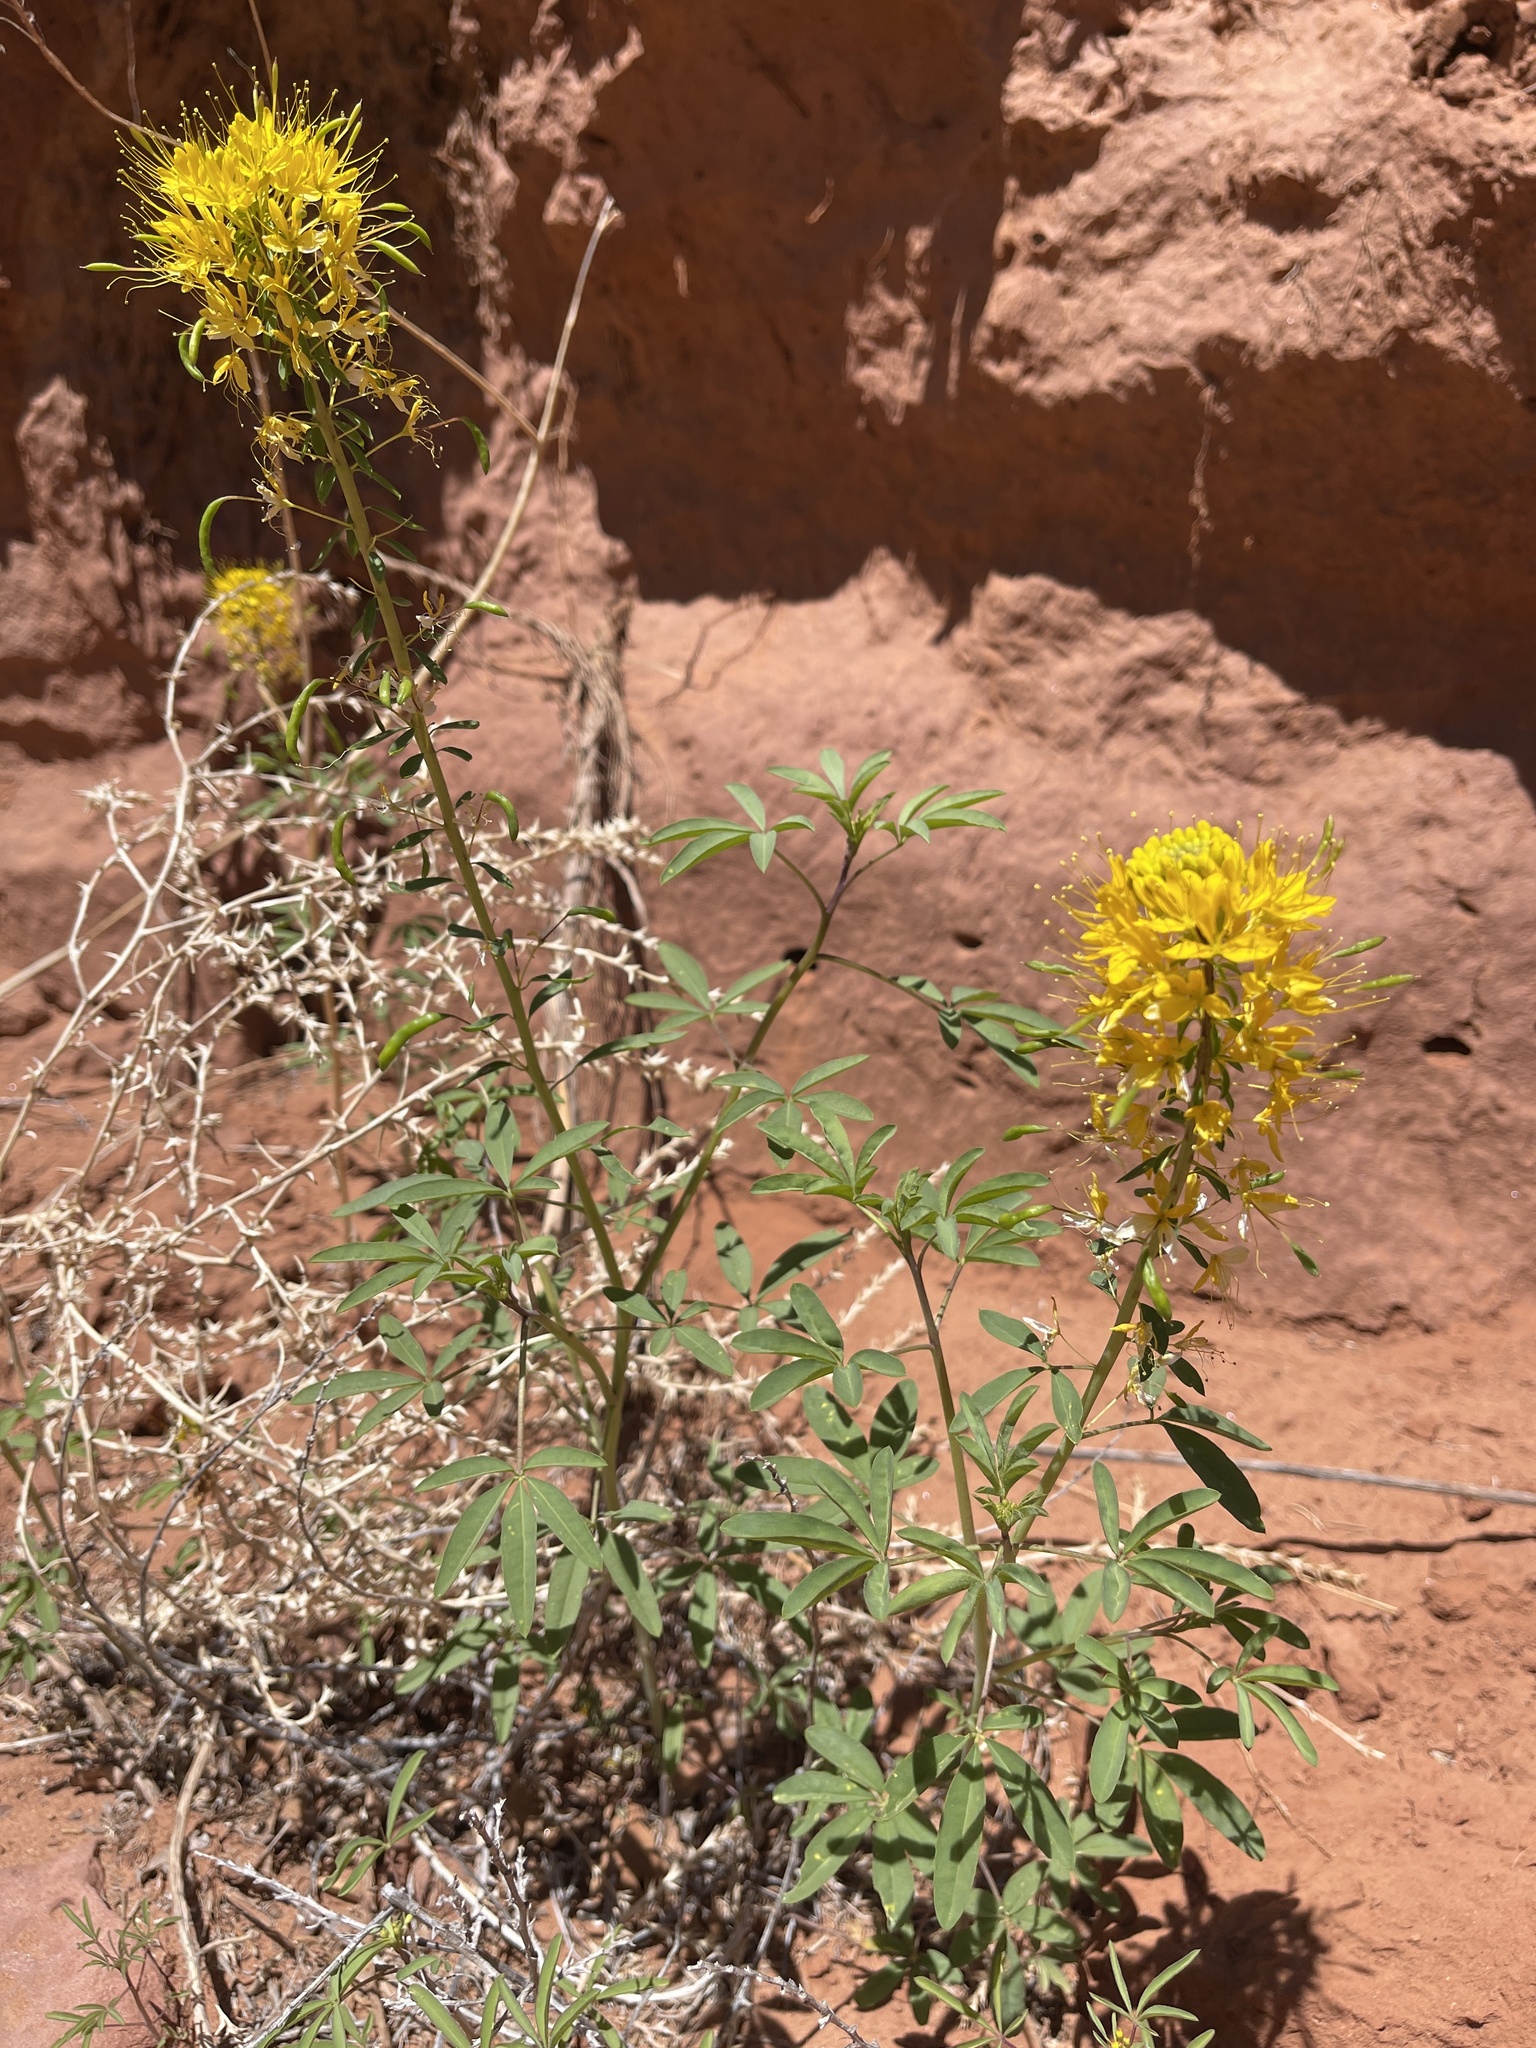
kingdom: Plantae
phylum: Tracheophyta
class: Magnoliopsida
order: Brassicales
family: Cleomaceae
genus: Cleomella
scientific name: Cleomella lutea
